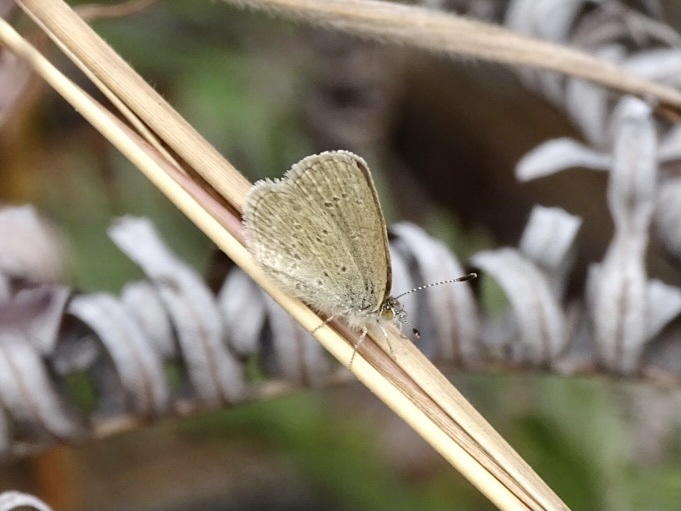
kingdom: Animalia
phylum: Arthropoda
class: Insecta
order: Lepidoptera
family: Lycaenidae
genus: Zizina
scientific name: Zizina otis
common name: Lesser grass blue
